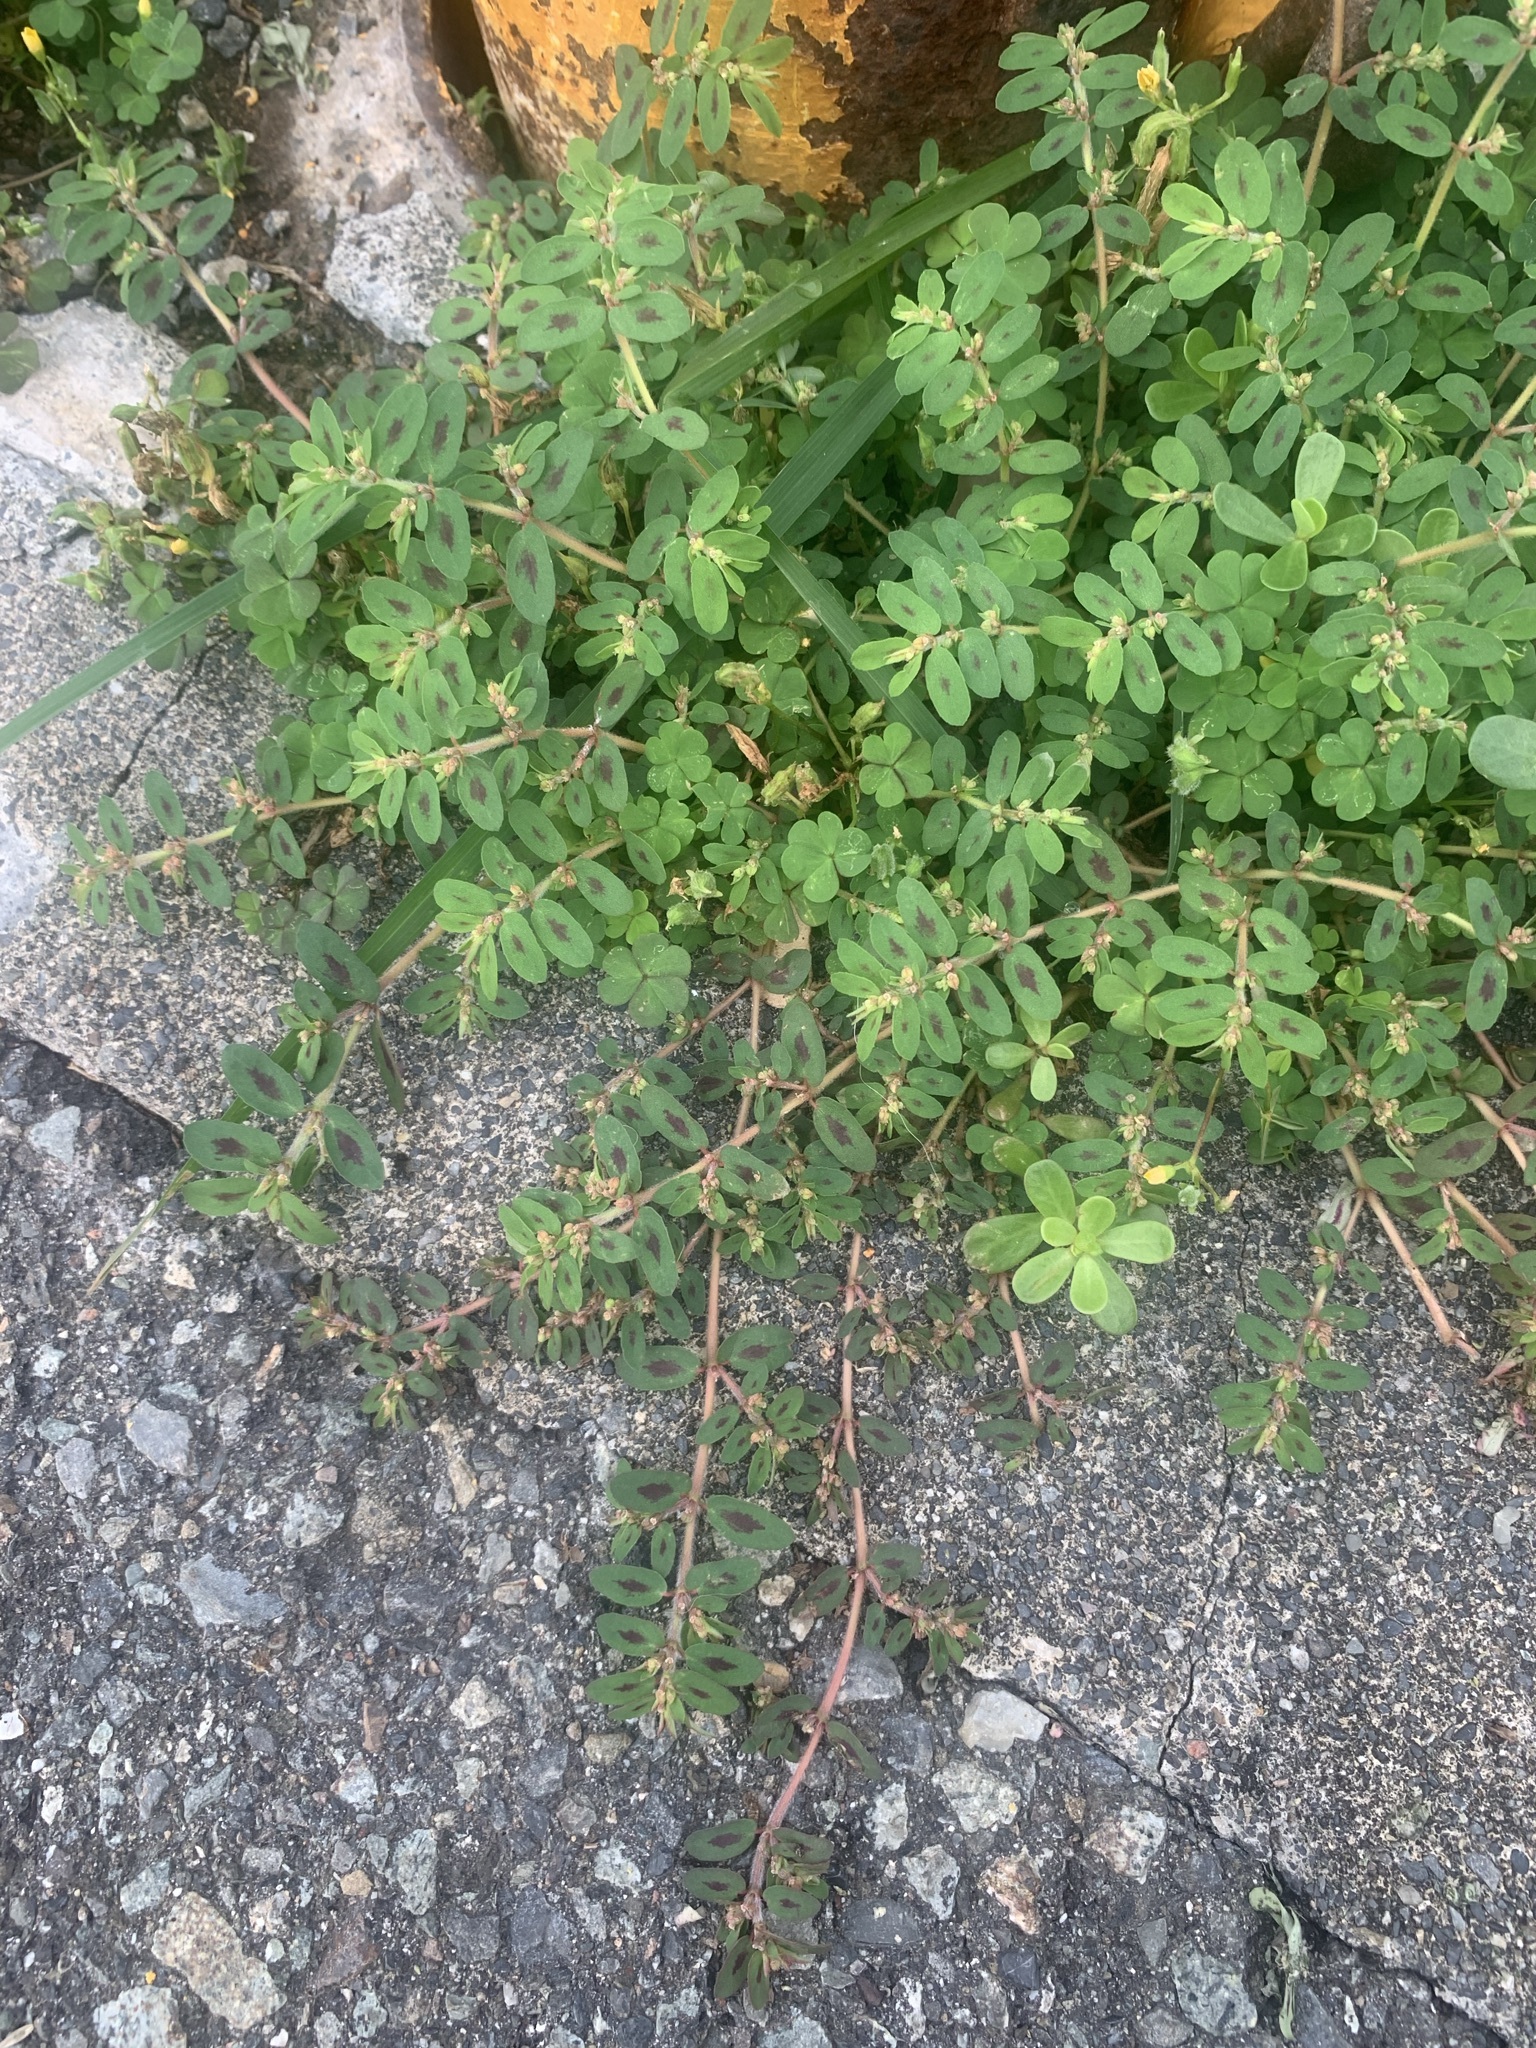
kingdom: Plantae
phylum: Tracheophyta
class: Magnoliopsida
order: Malpighiales
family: Euphorbiaceae
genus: Euphorbia
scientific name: Euphorbia maculata
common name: Spotted spurge
